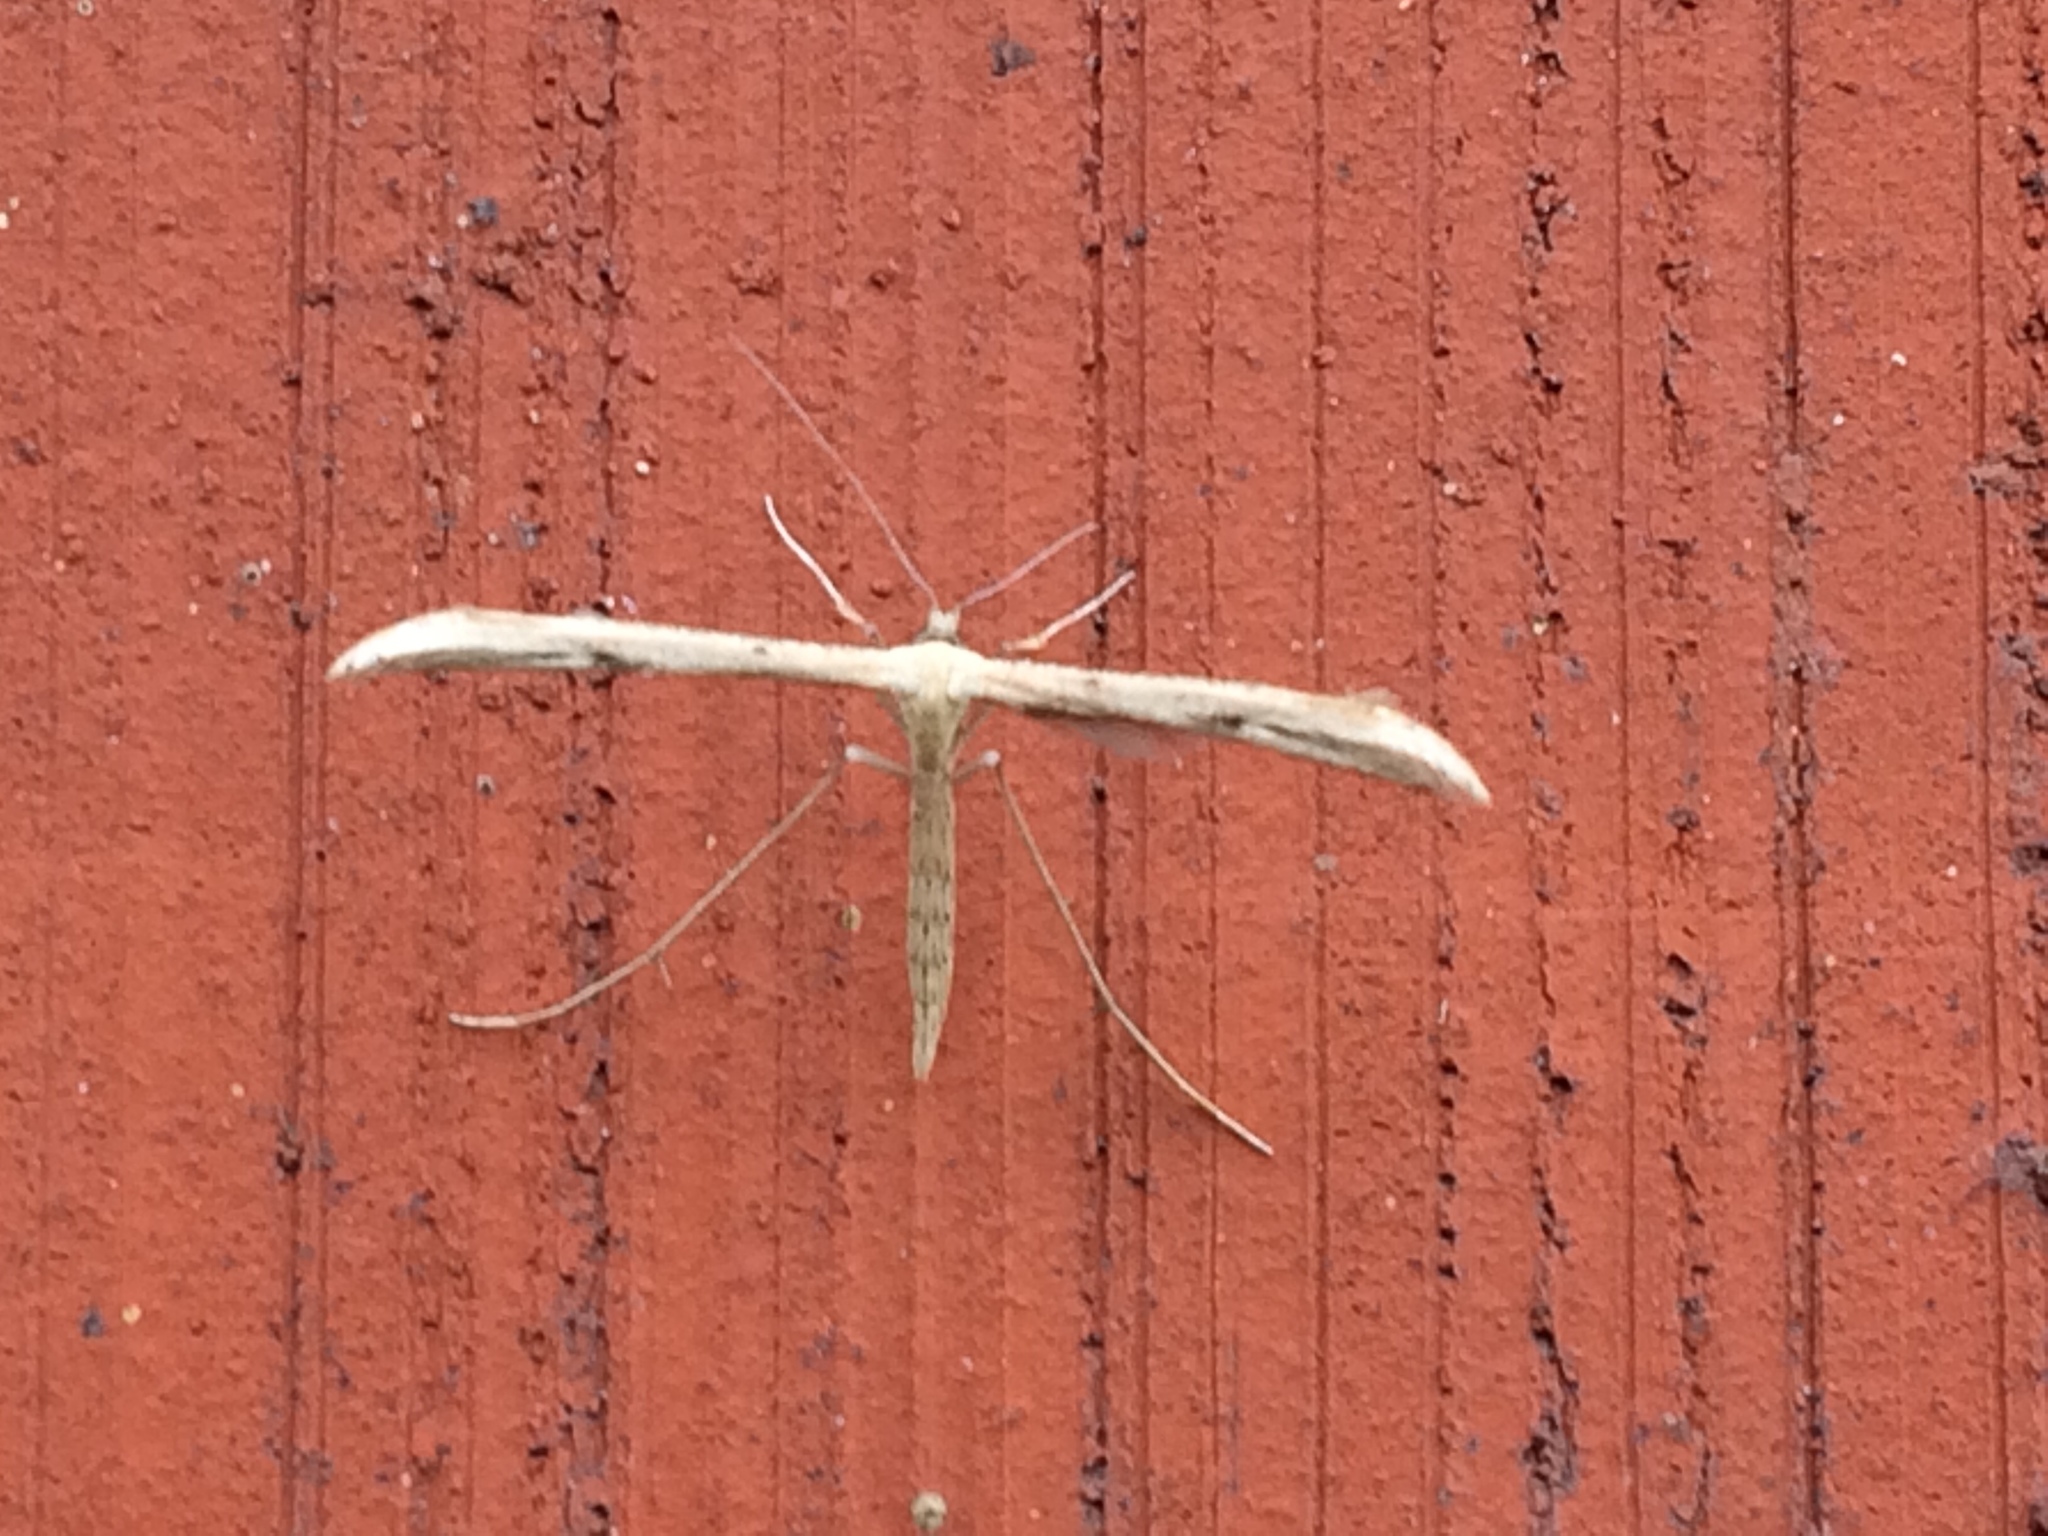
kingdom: Animalia
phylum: Arthropoda
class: Insecta
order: Lepidoptera
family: Pterophoridae
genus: Emmelina
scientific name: Emmelina monodactyla
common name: Common plume
